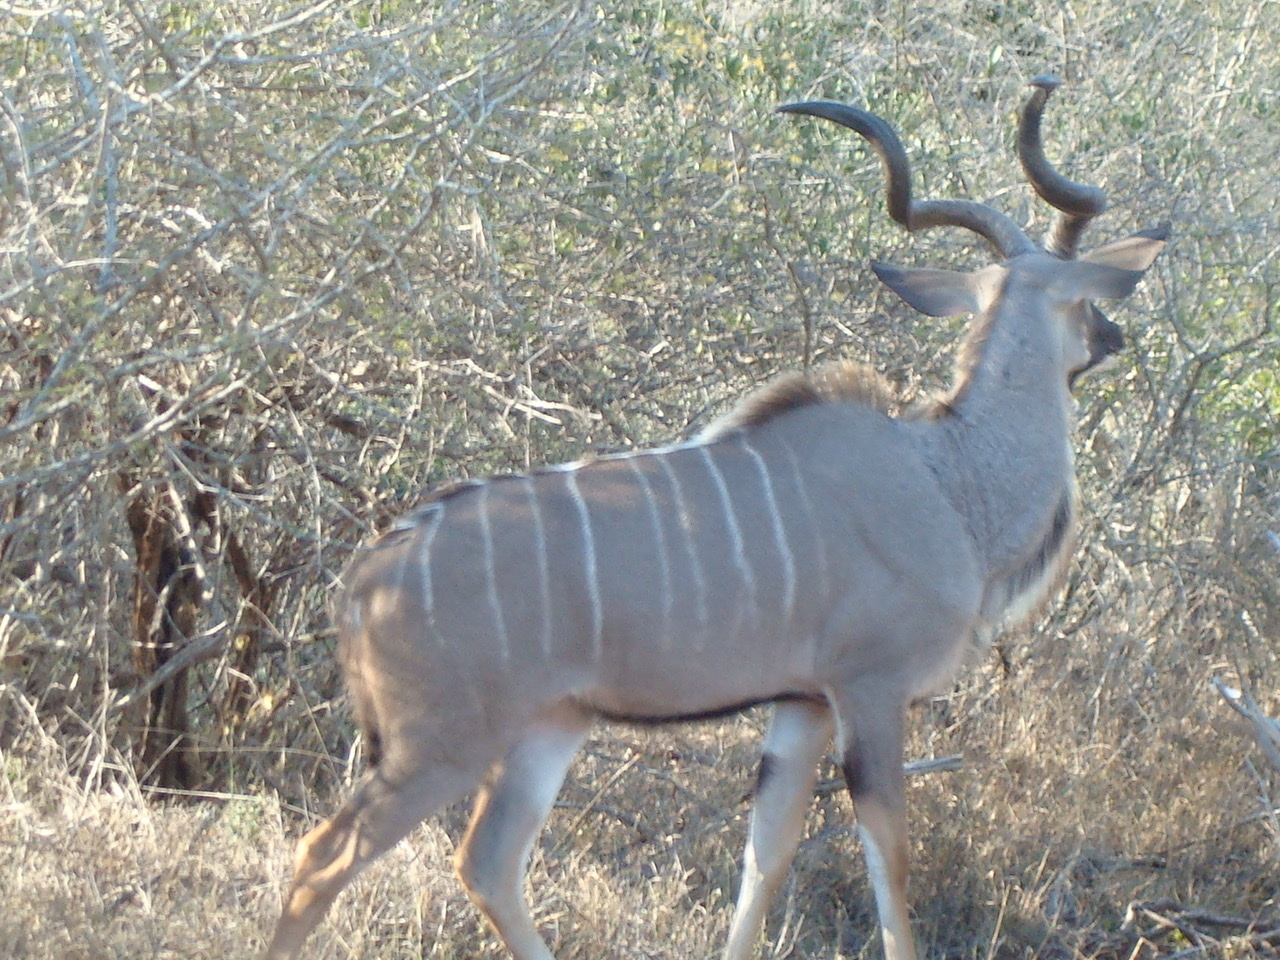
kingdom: Animalia
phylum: Chordata
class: Mammalia
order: Artiodactyla
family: Bovidae
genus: Tragelaphus
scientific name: Tragelaphus strepsiceros
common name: Greater kudu
